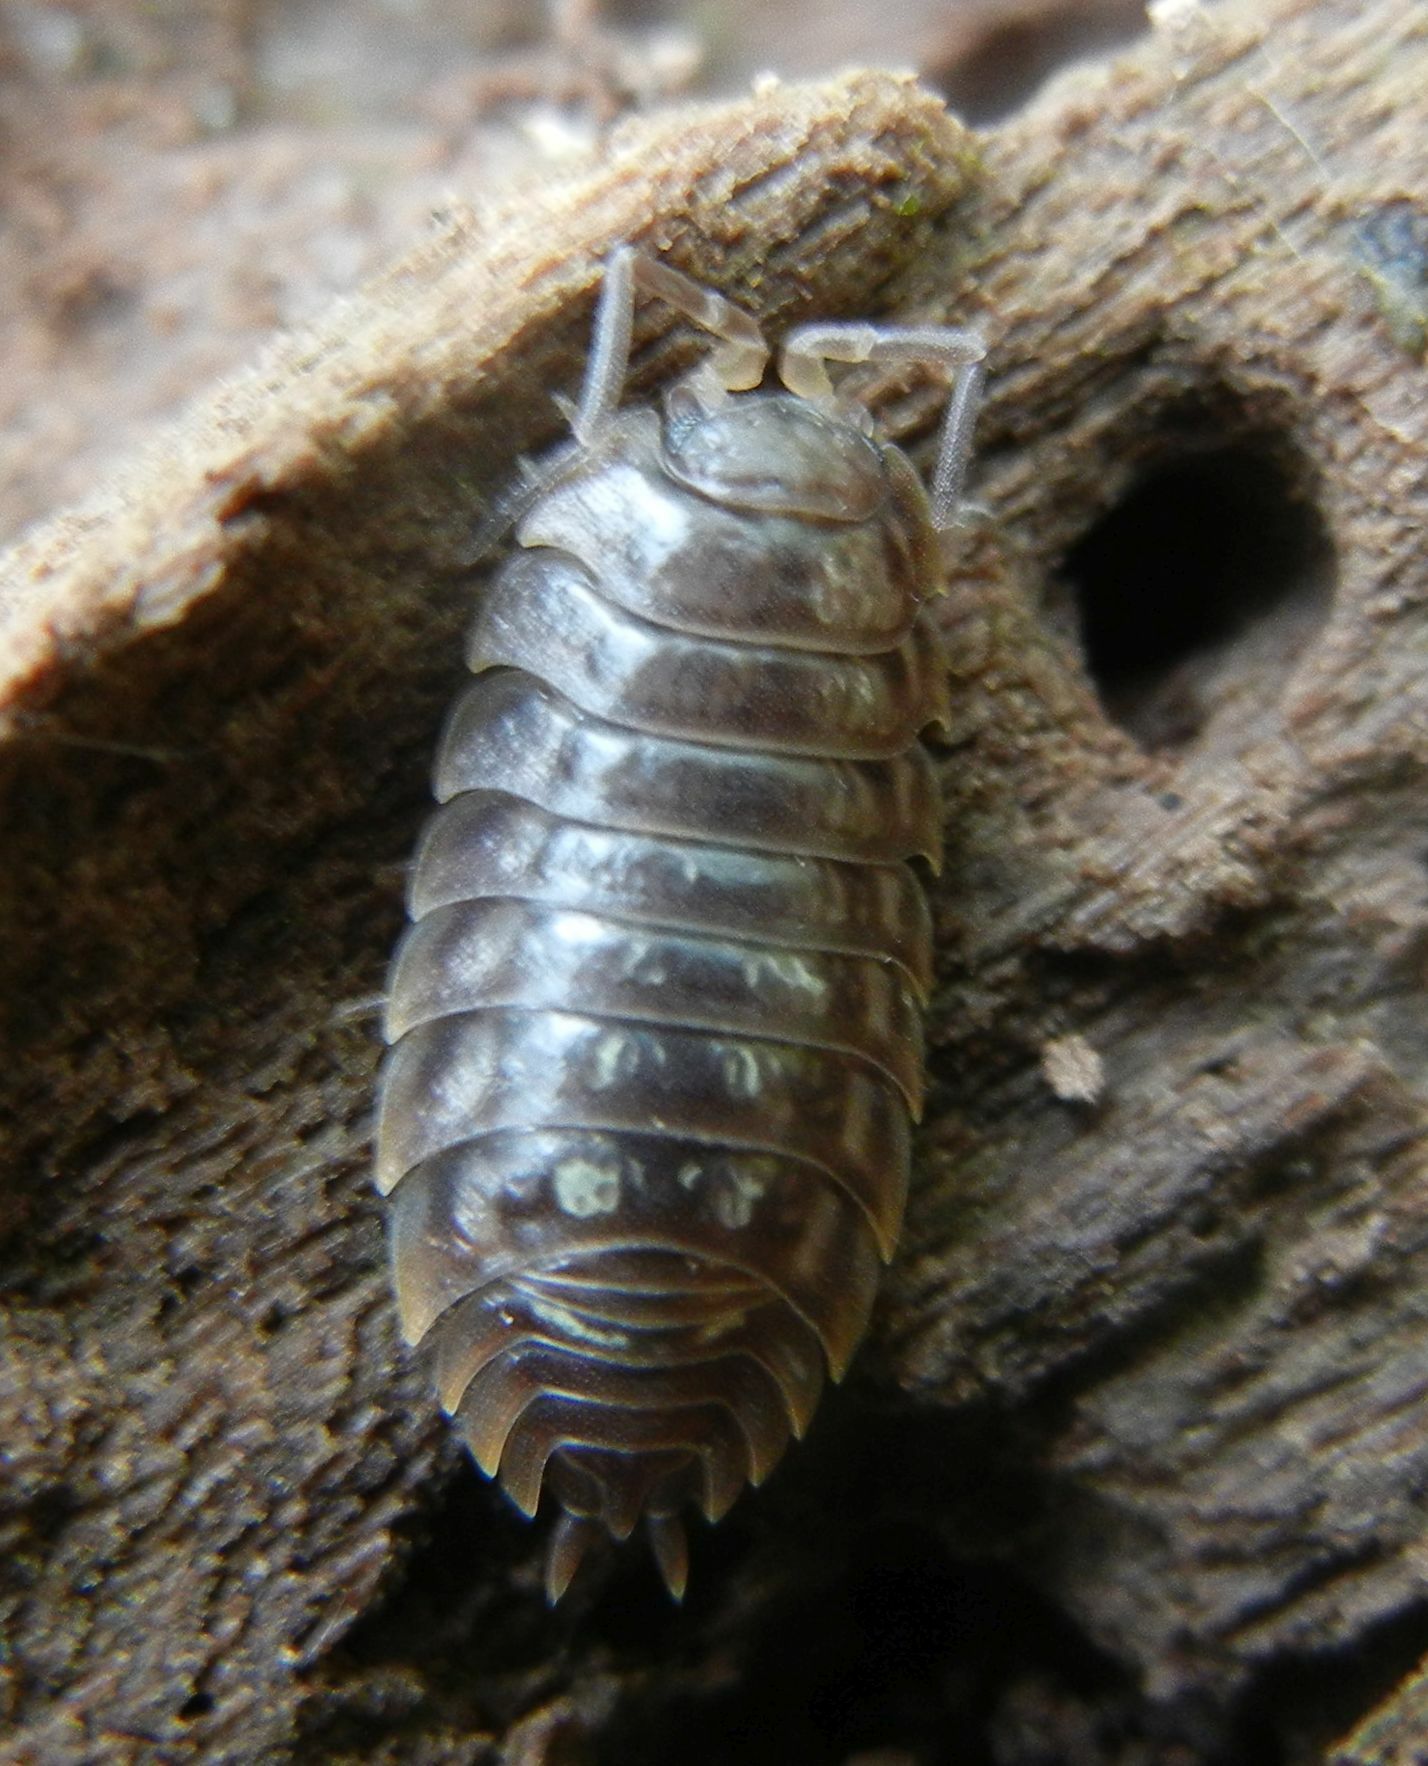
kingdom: Animalia
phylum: Arthropoda
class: Malacostraca
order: Isopoda
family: Oniscidae
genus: Oniscus
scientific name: Oniscus asellus
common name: Common shiny woodlouse
